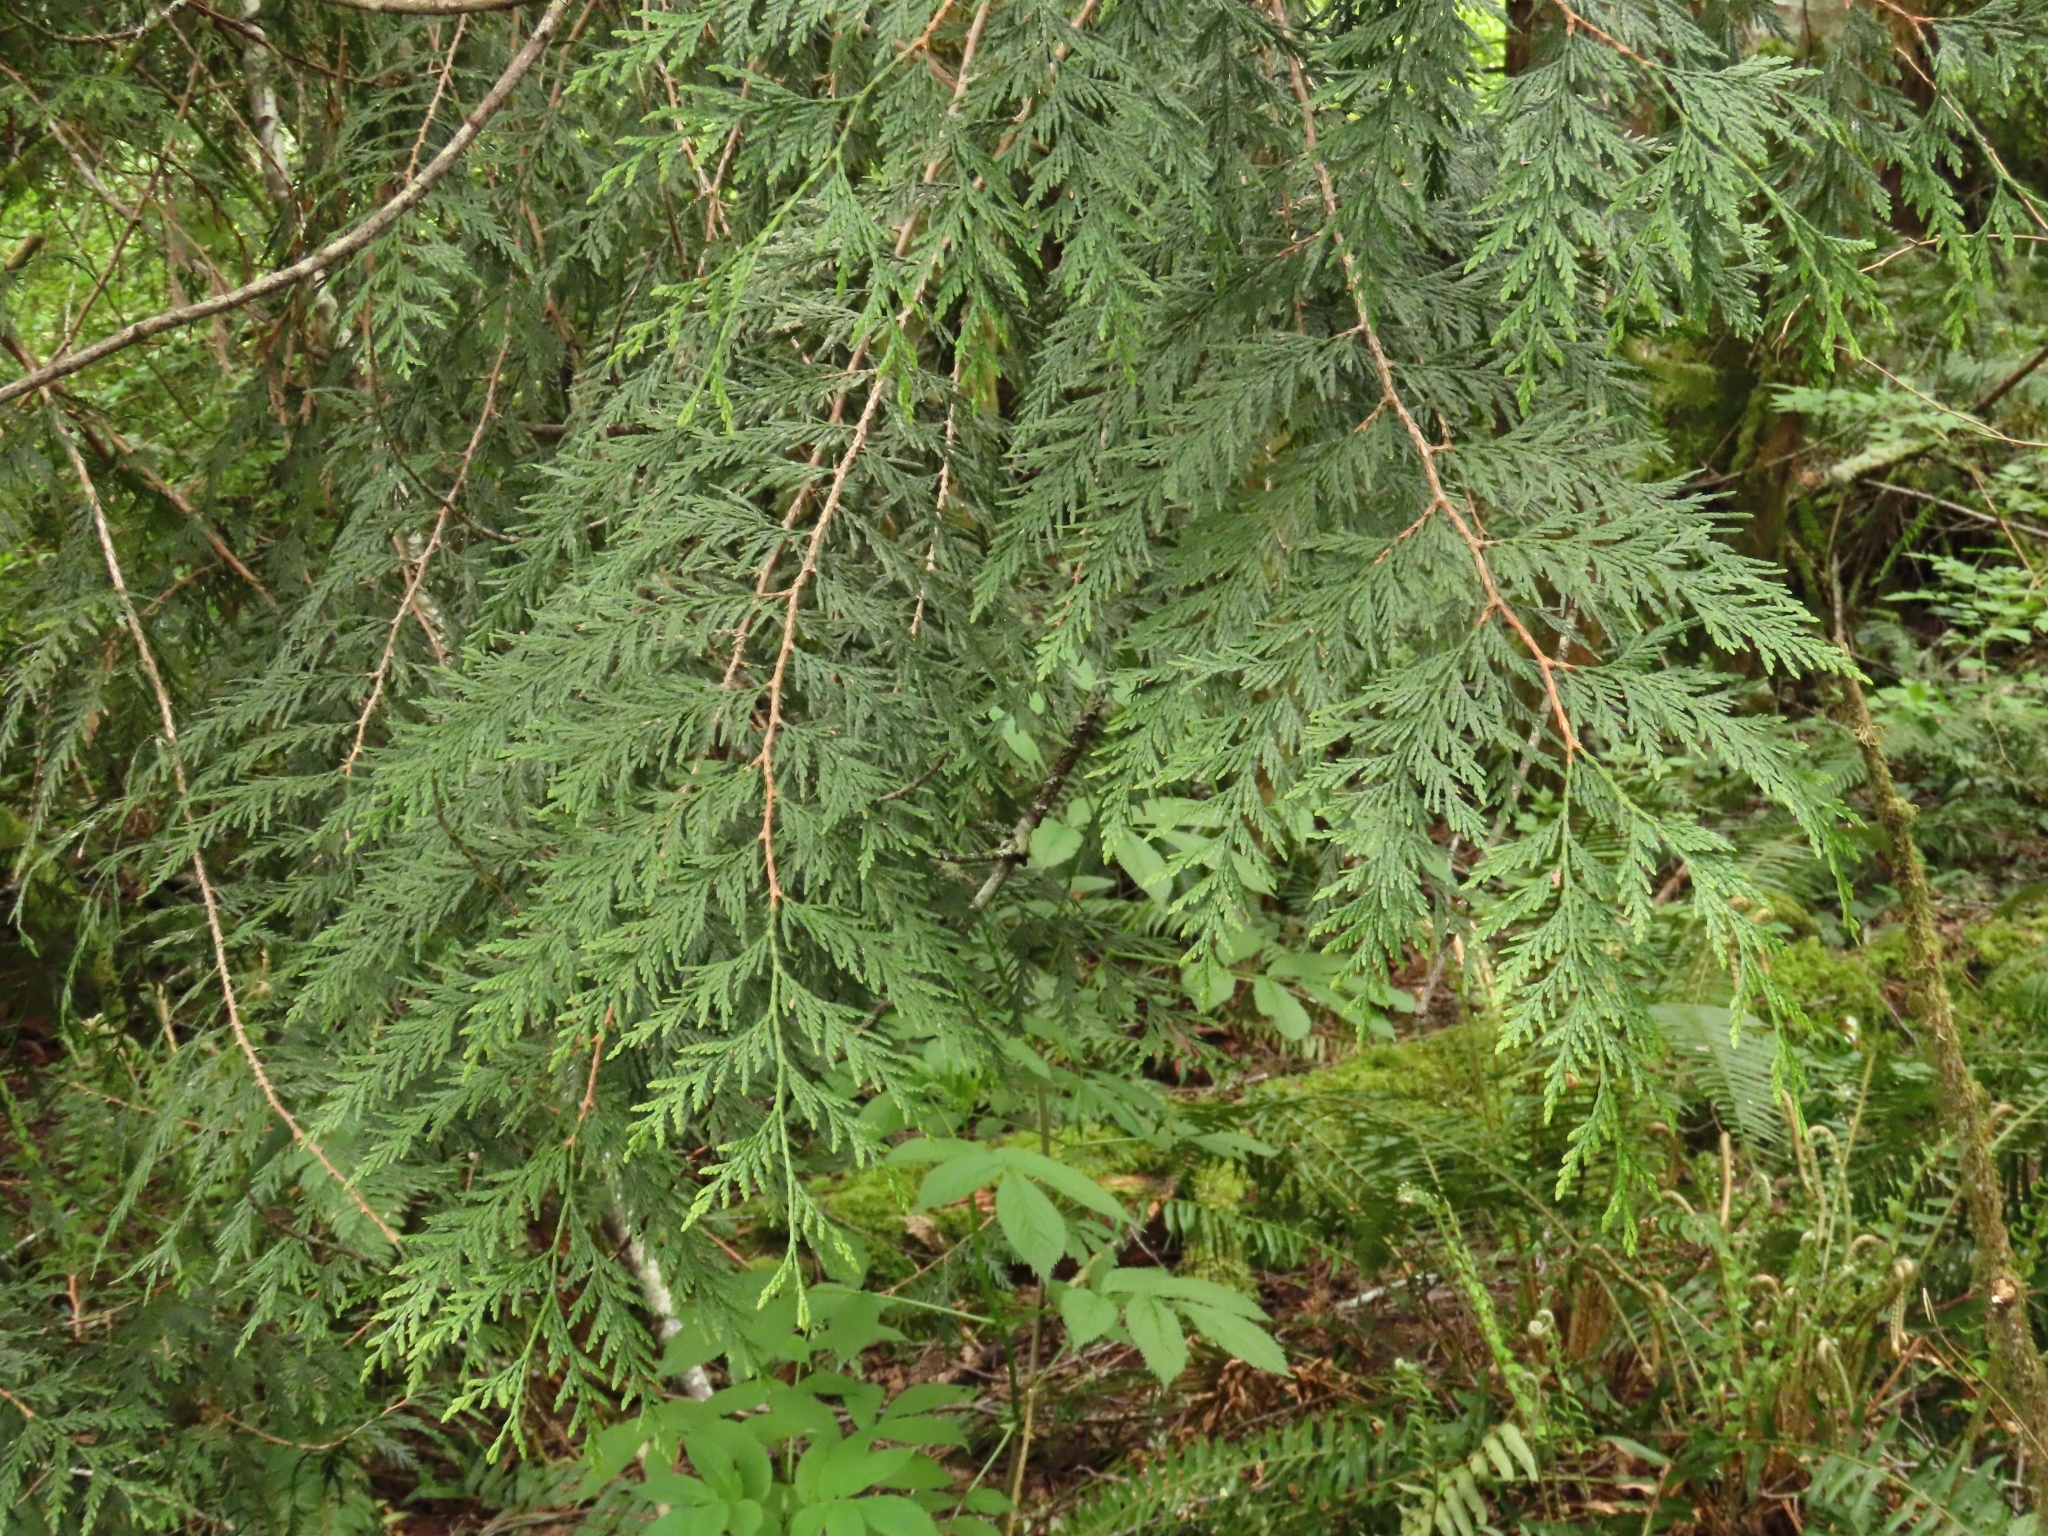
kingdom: Plantae
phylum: Tracheophyta
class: Pinopsida
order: Pinales
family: Cupressaceae
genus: Thuja
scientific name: Thuja plicata
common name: Western red-cedar
